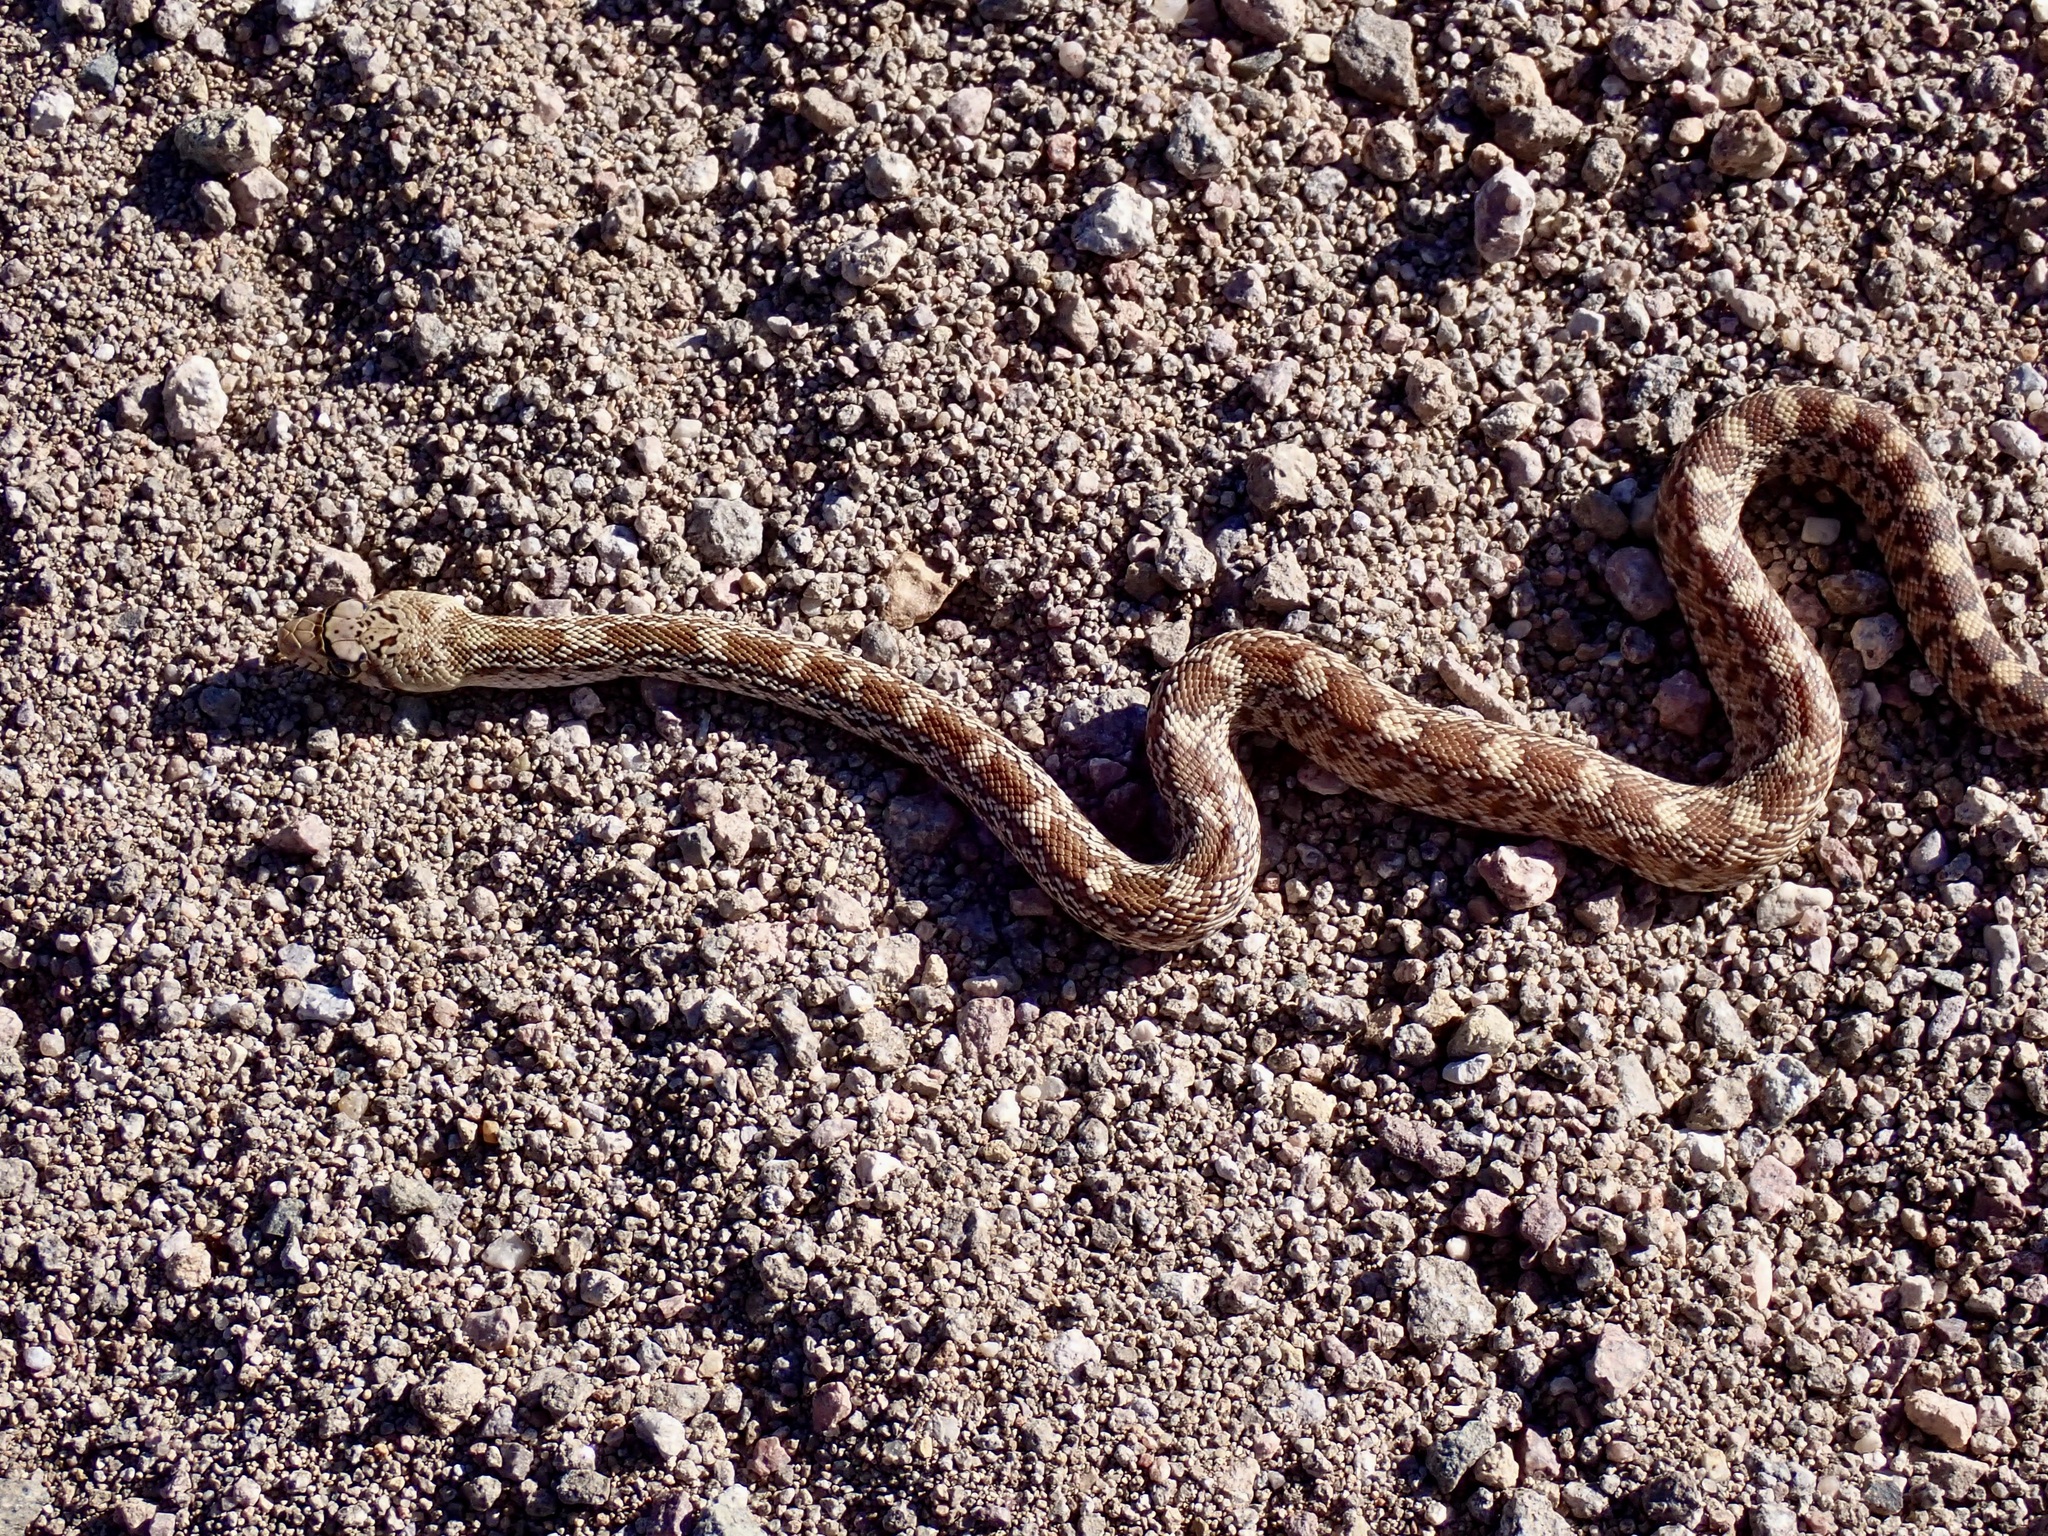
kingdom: Animalia
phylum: Chordata
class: Squamata
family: Colubridae
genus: Pituophis
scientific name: Pituophis catenifer
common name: Gopher snake
